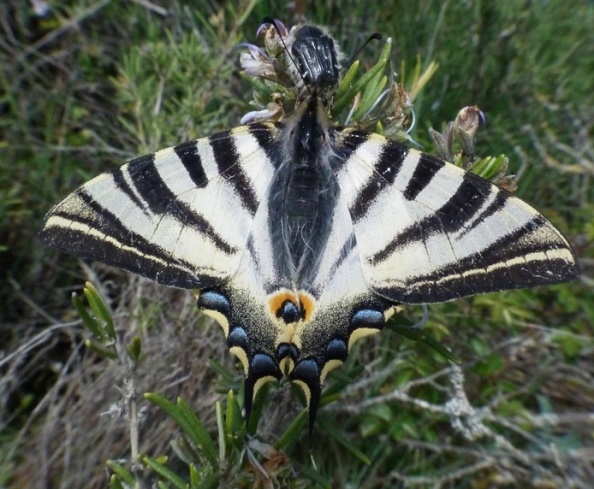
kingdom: Animalia
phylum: Arthropoda
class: Insecta
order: Lepidoptera
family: Papilionidae
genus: Iphiclides
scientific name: Iphiclides feisthamelii
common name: Iberian scarce swallowtail
